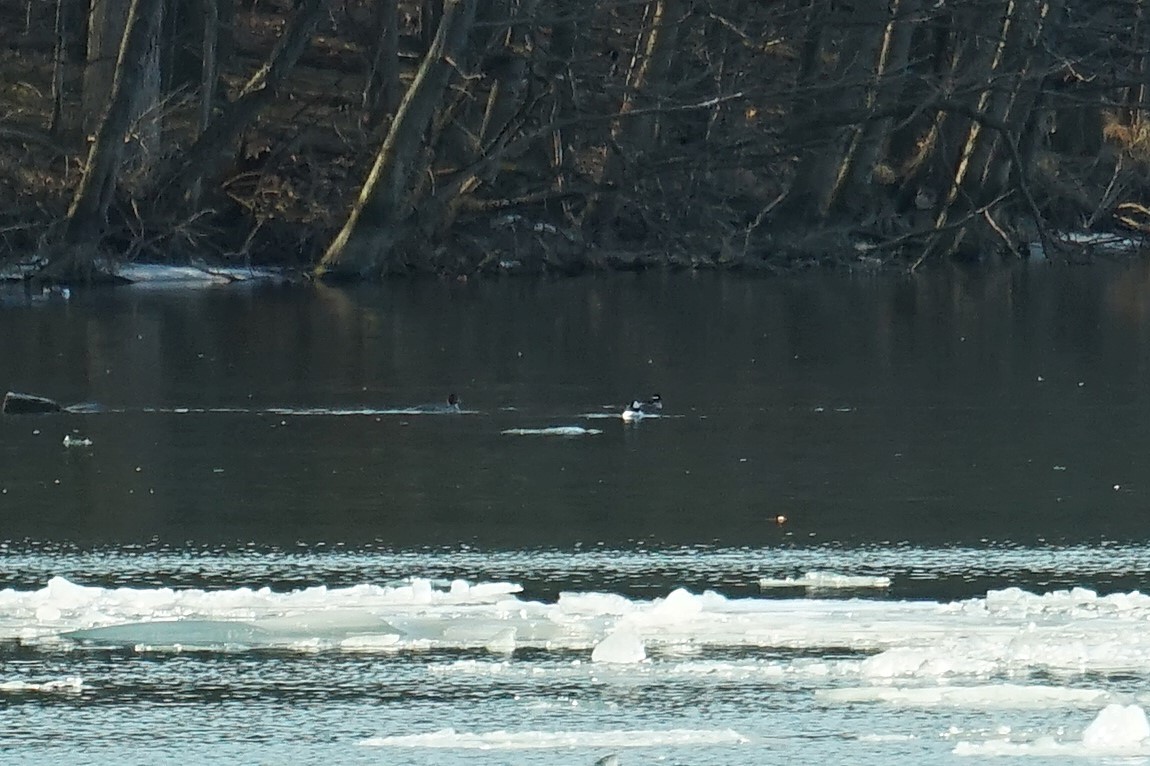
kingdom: Animalia
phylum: Chordata
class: Aves
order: Anseriformes
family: Anatidae
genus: Bucephala
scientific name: Bucephala albeola
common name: Bufflehead
